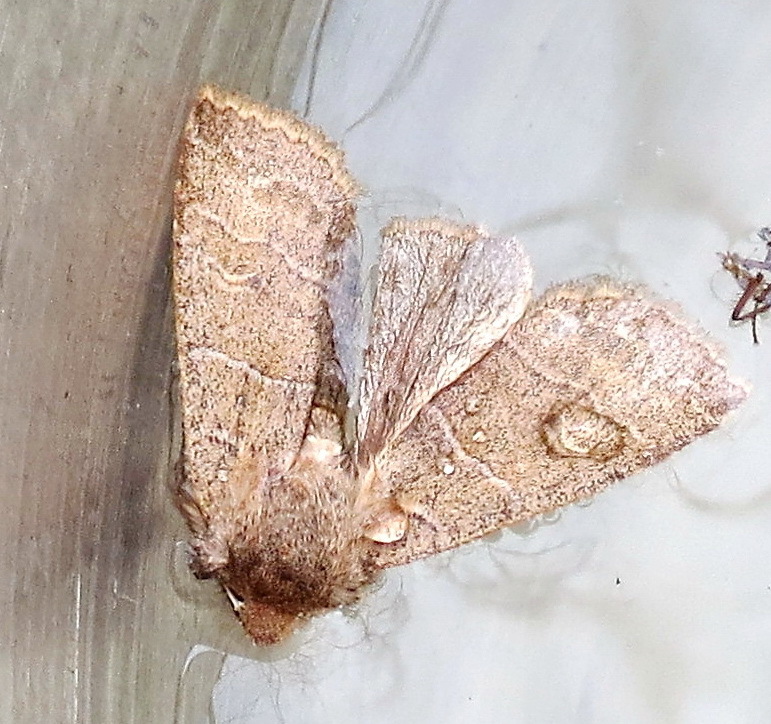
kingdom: Animalia
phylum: Arthropoda
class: Insecta
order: Lepidoptera
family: Noctuidae
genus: Eupsilia
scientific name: Eupsilia morrisoni
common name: Morrison's sallow
